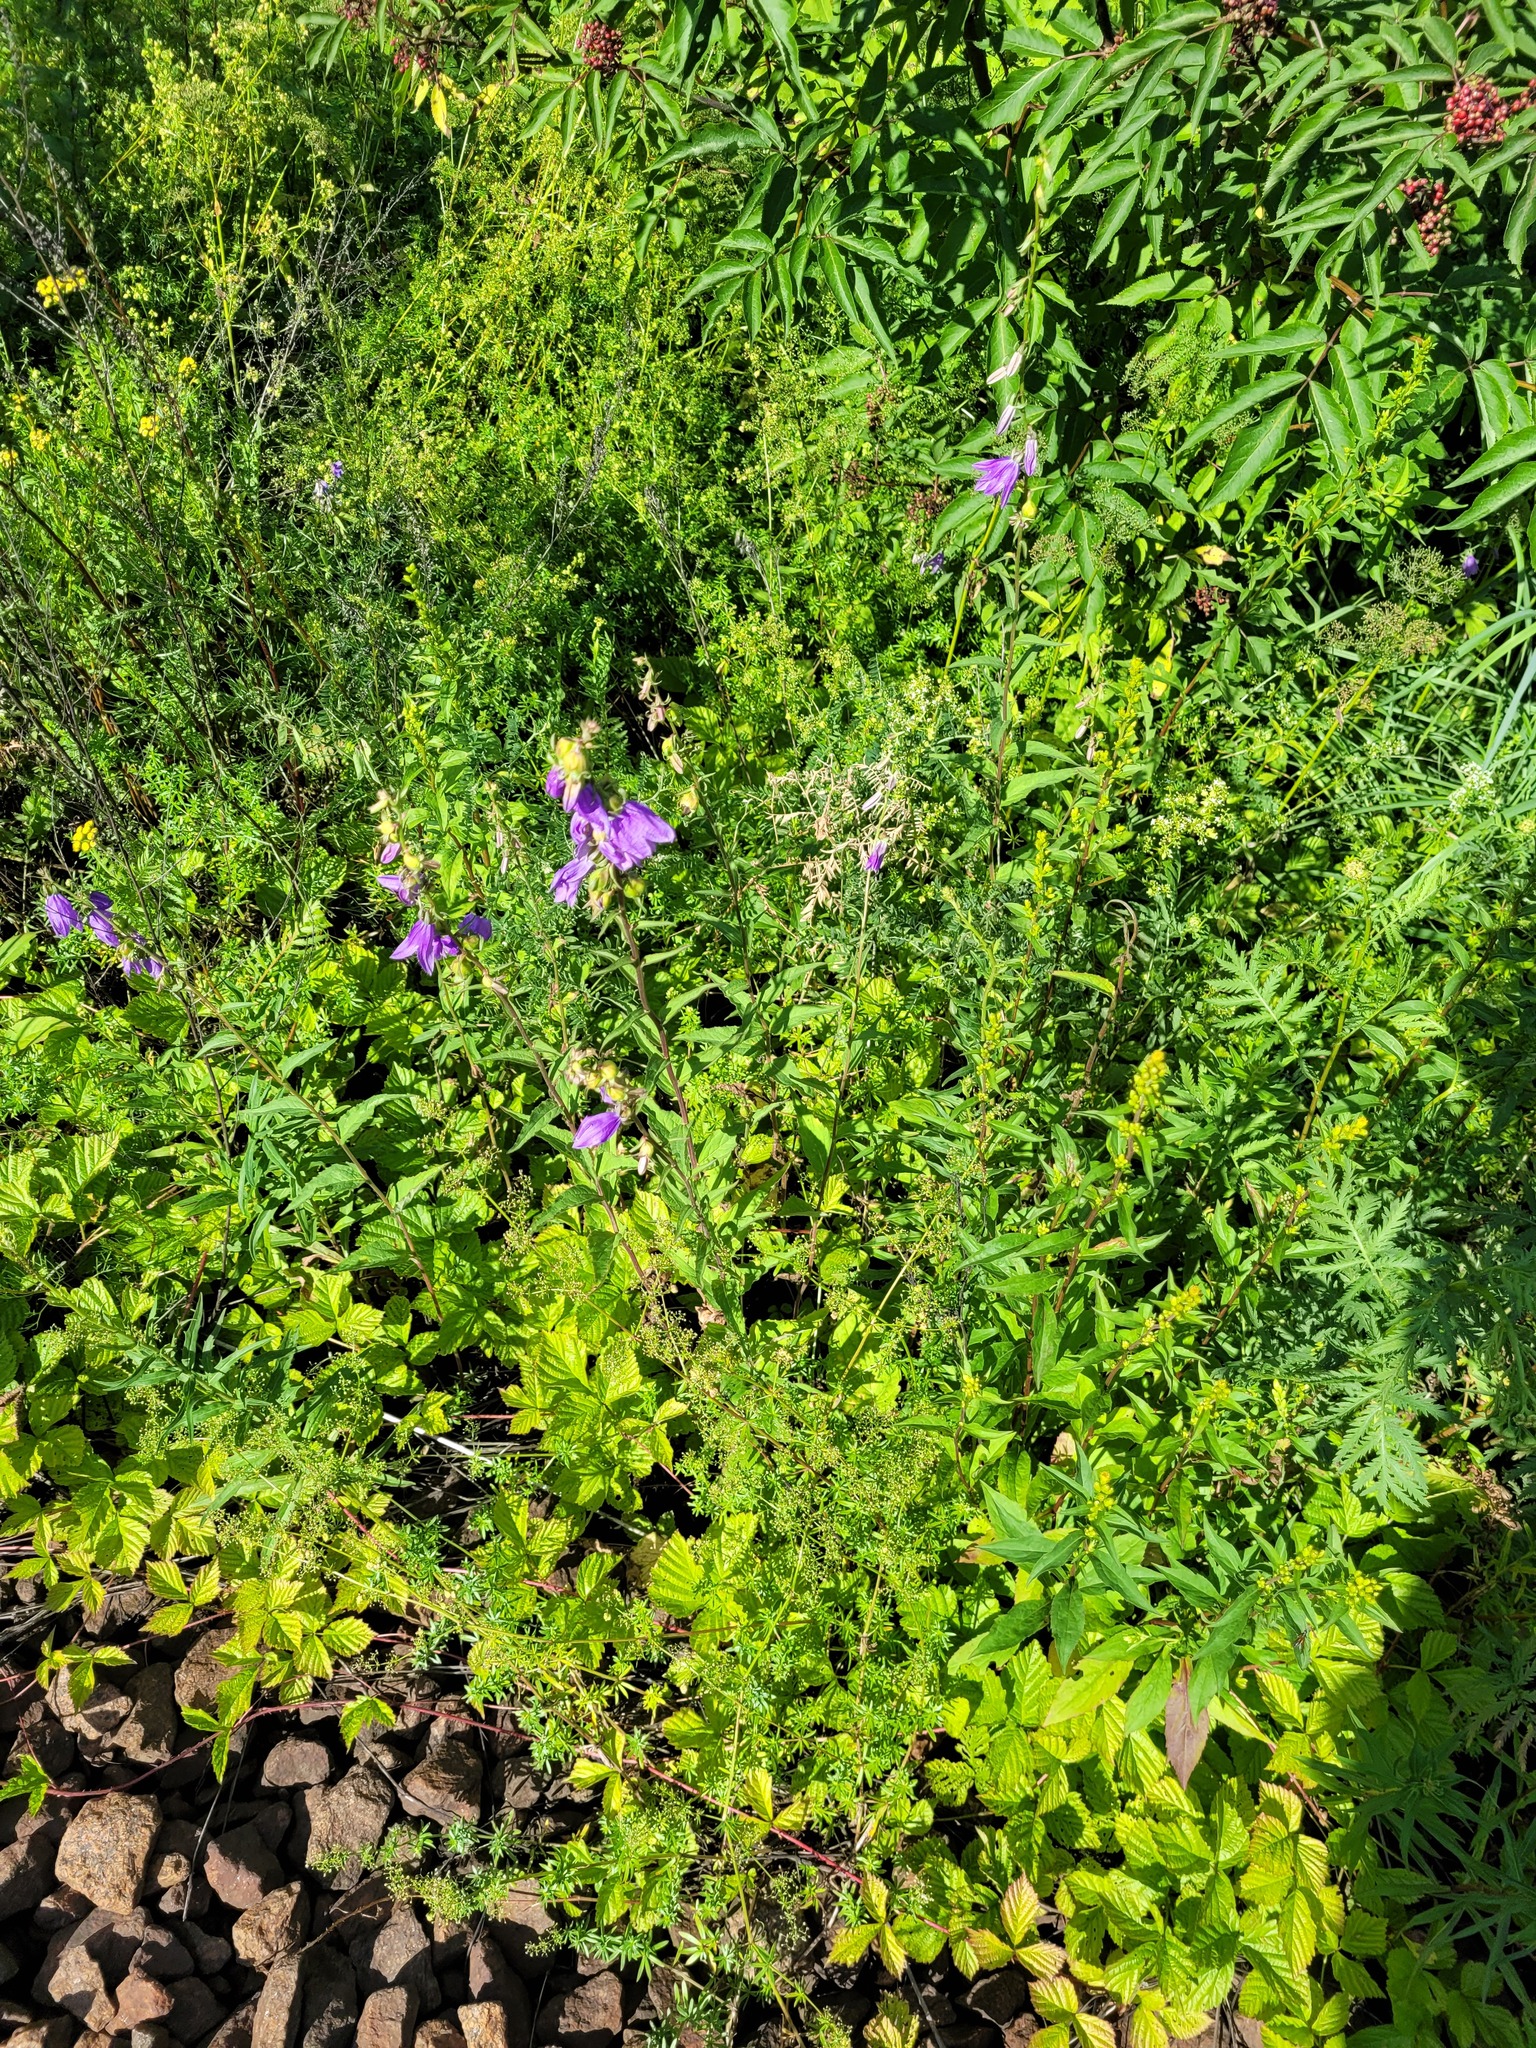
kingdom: Plantae
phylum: Tracheophyta
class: Magnoliopsida
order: Asterales
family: Campanulaceae
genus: Campanula
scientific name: Campanula rapunculoides
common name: Creeping bellflower
